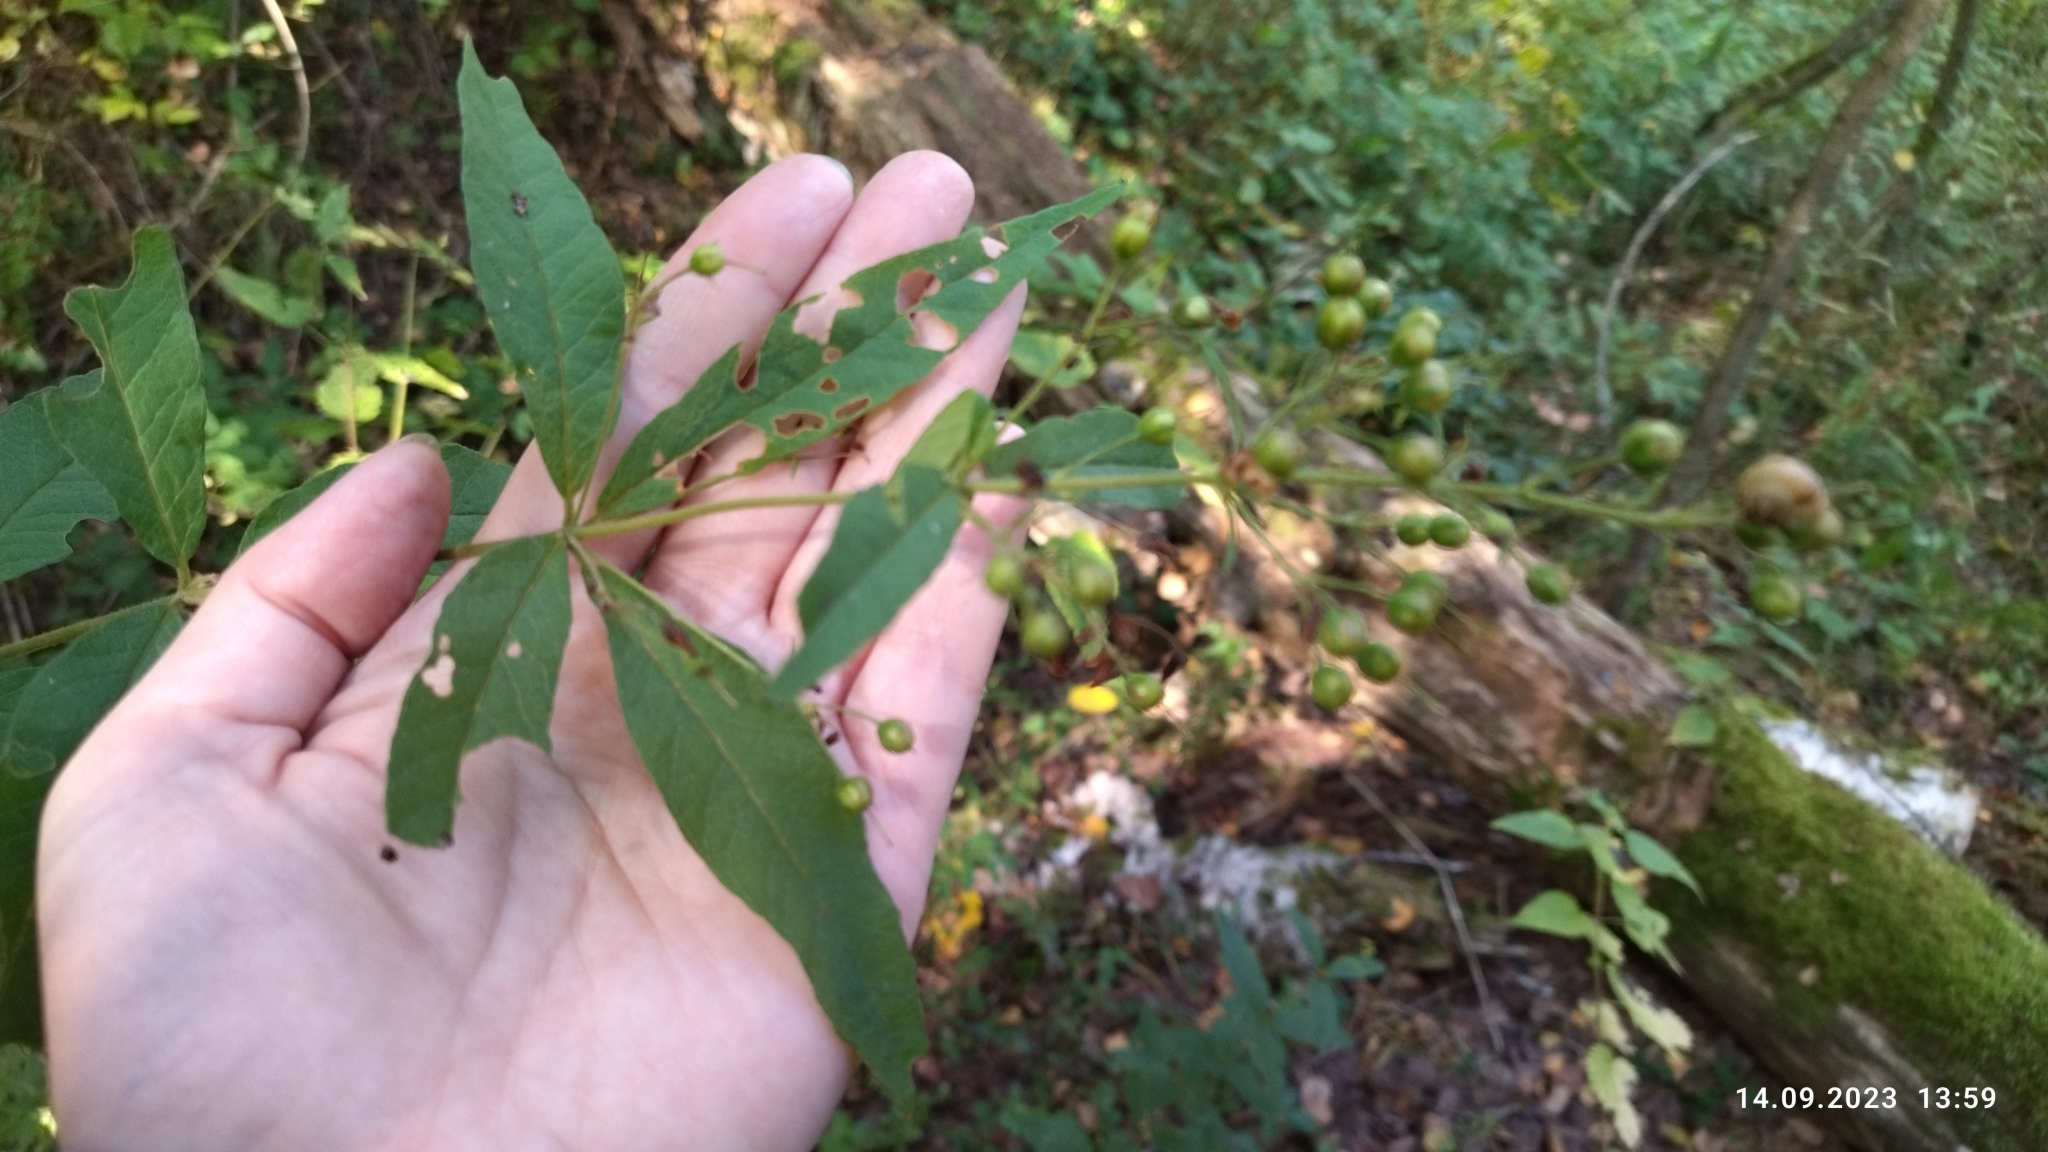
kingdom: Plantae
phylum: Tracheophyta
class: Magnoliopsida
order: Ericales
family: Primulaceae
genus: Lysimachia
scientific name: Lysimachia vulgaris
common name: Yellow loosestrife
